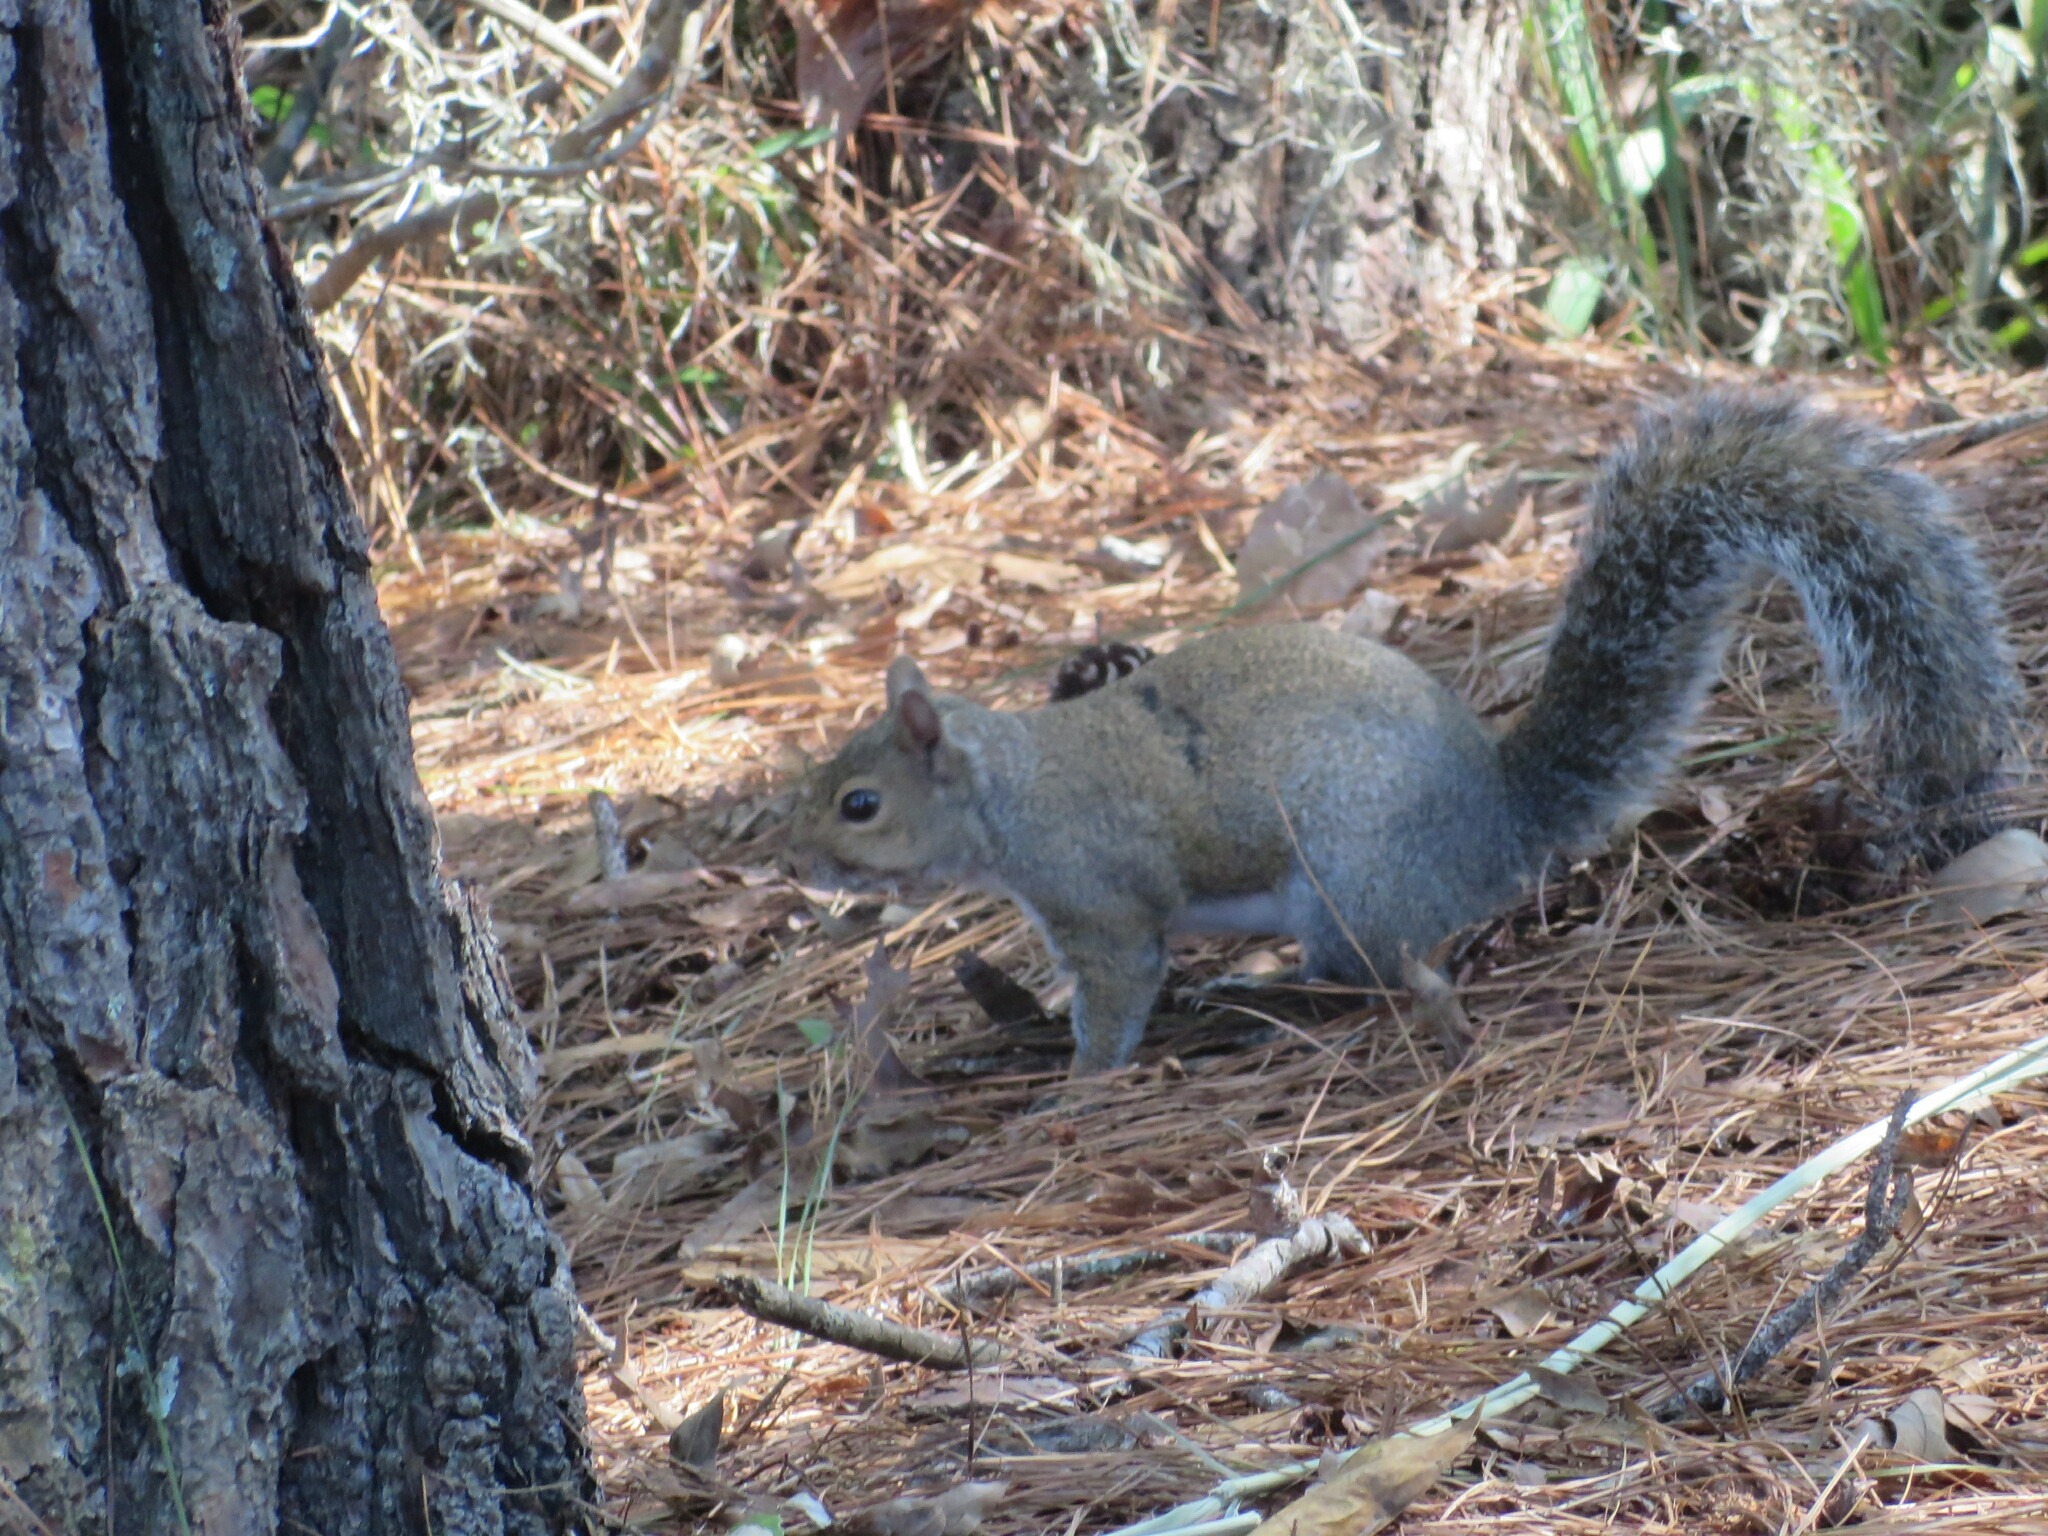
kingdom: Animalia
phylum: Chordata
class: Mammalia
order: Rodentia
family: Sciuridae
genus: Sciurus
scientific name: Sciurus carolinensis
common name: Eastern gray squirrel
